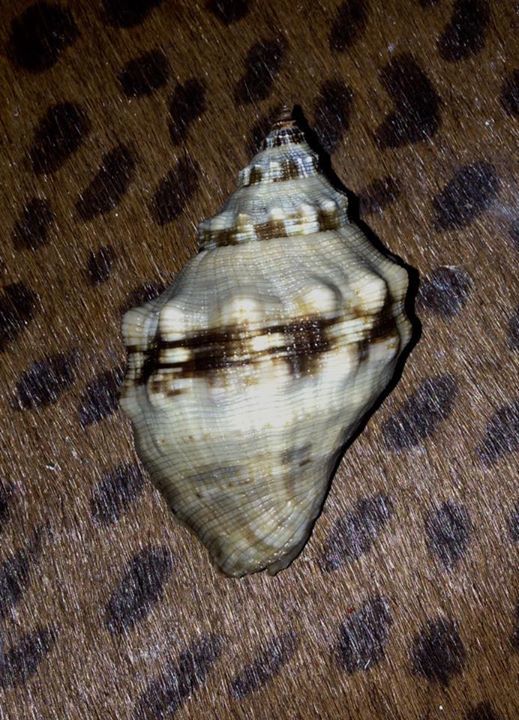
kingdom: Animalia
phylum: Mollusca
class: Gastropoda
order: Neogastropoda
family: Muricidae
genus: Stramonita
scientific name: Stramonita haemastoma
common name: Florida dog winkle
